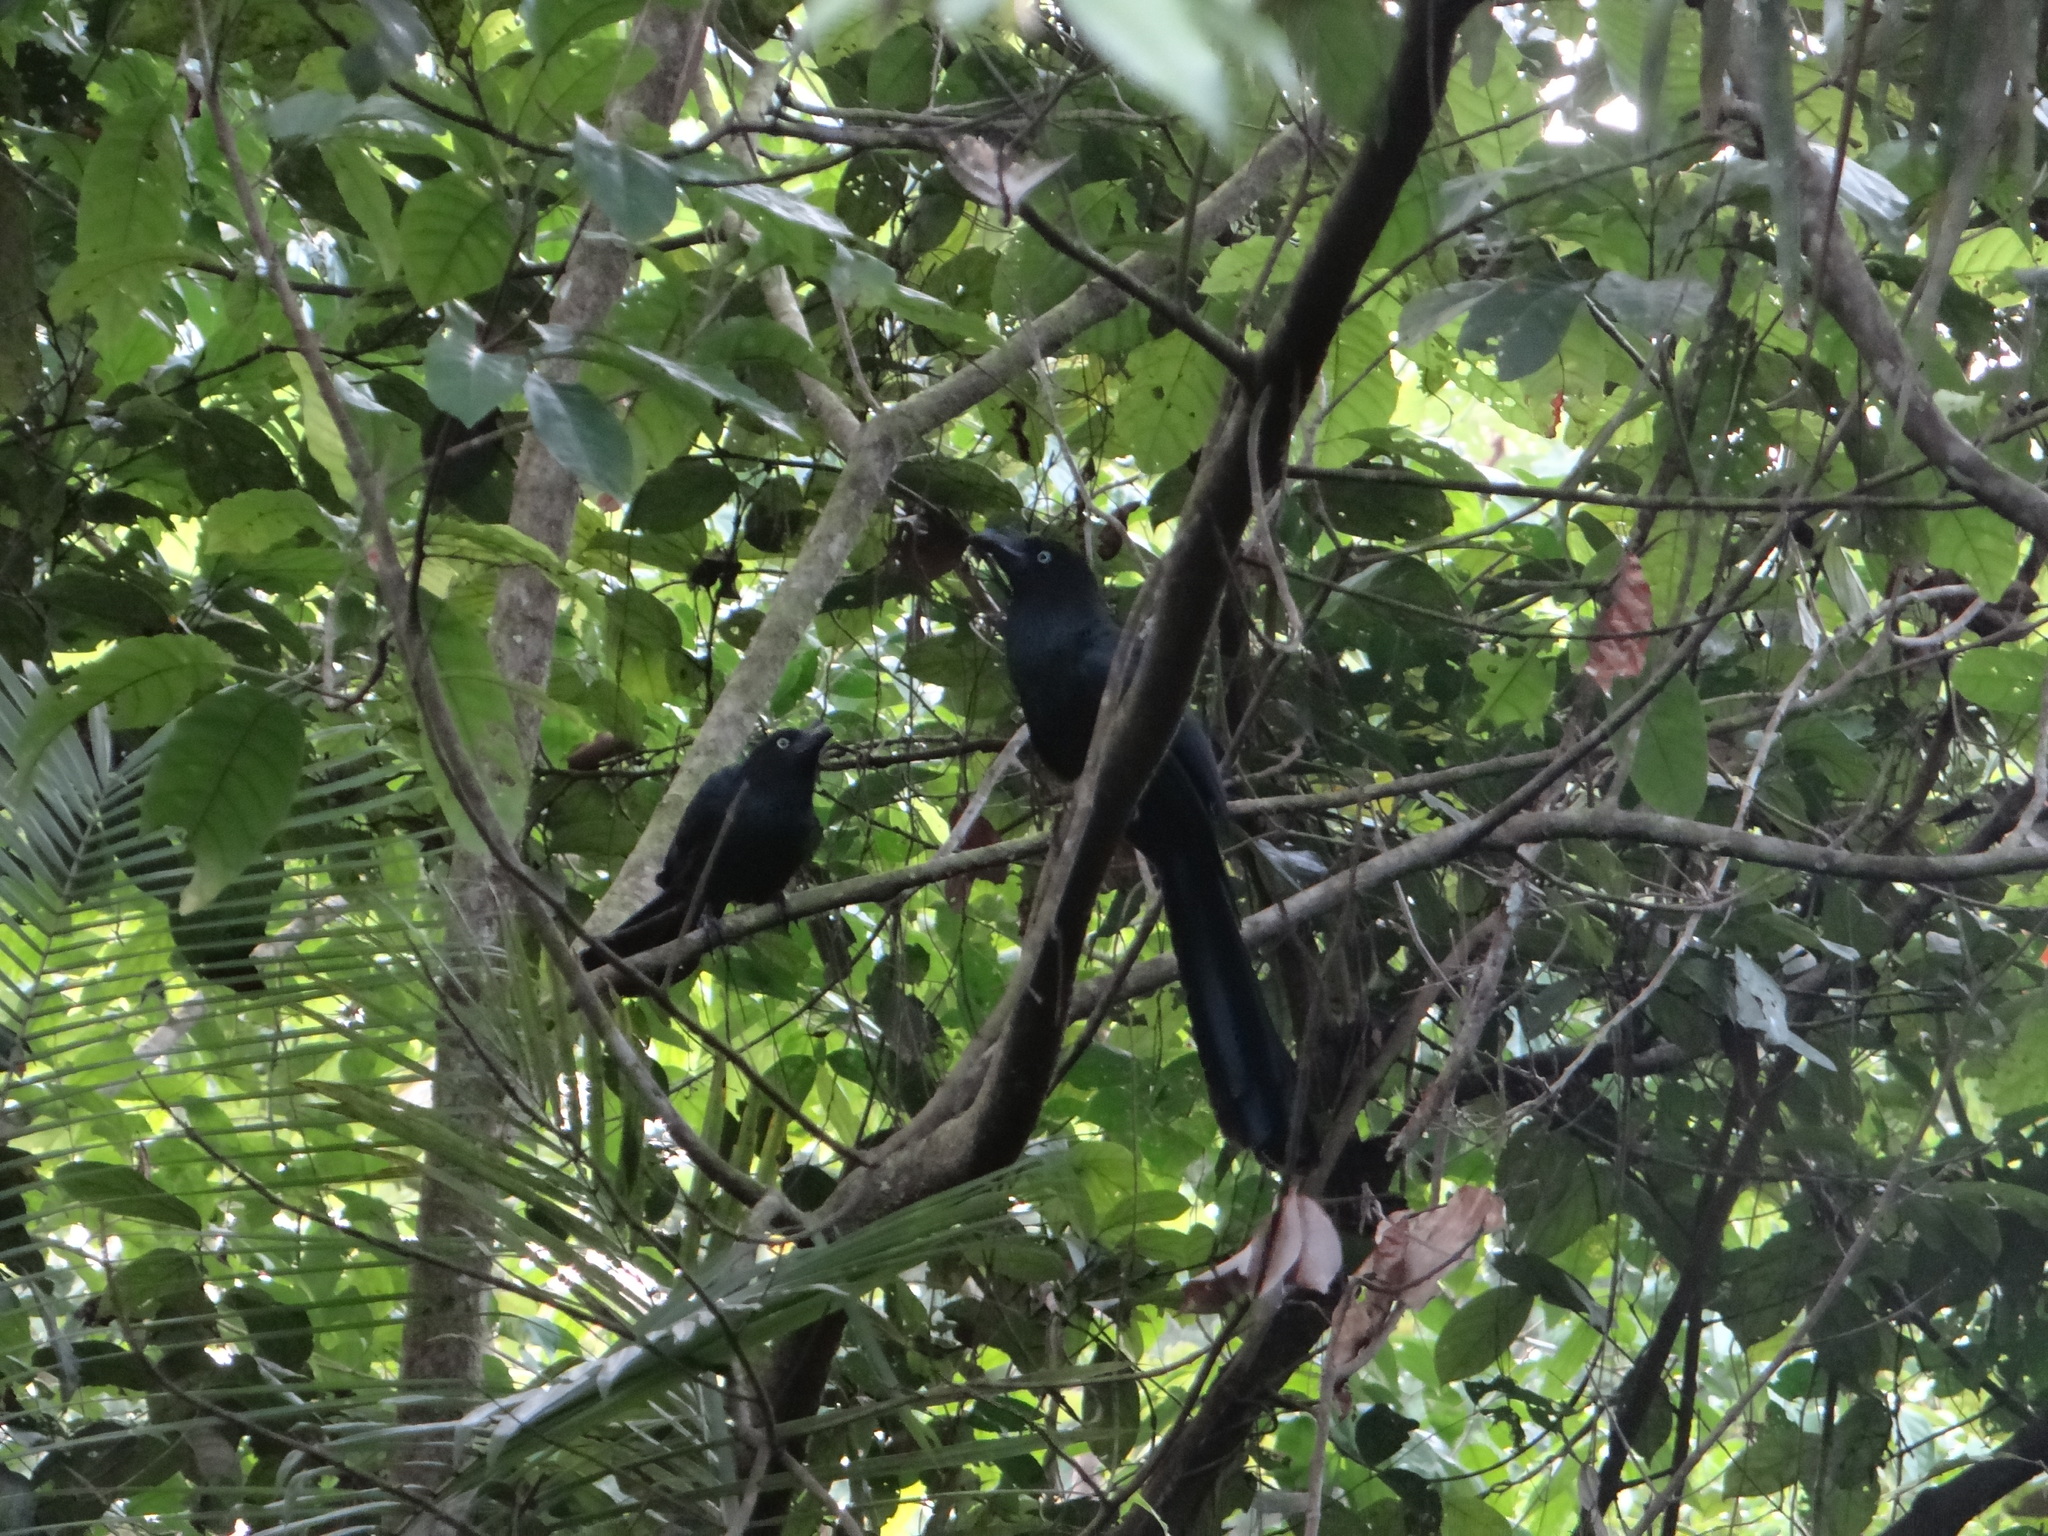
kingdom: Animalia
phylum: Chordata
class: Aves
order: Cuculiformes
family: Cuculidae
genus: Crotophaga
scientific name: Crotophaga major
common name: Greater ani
